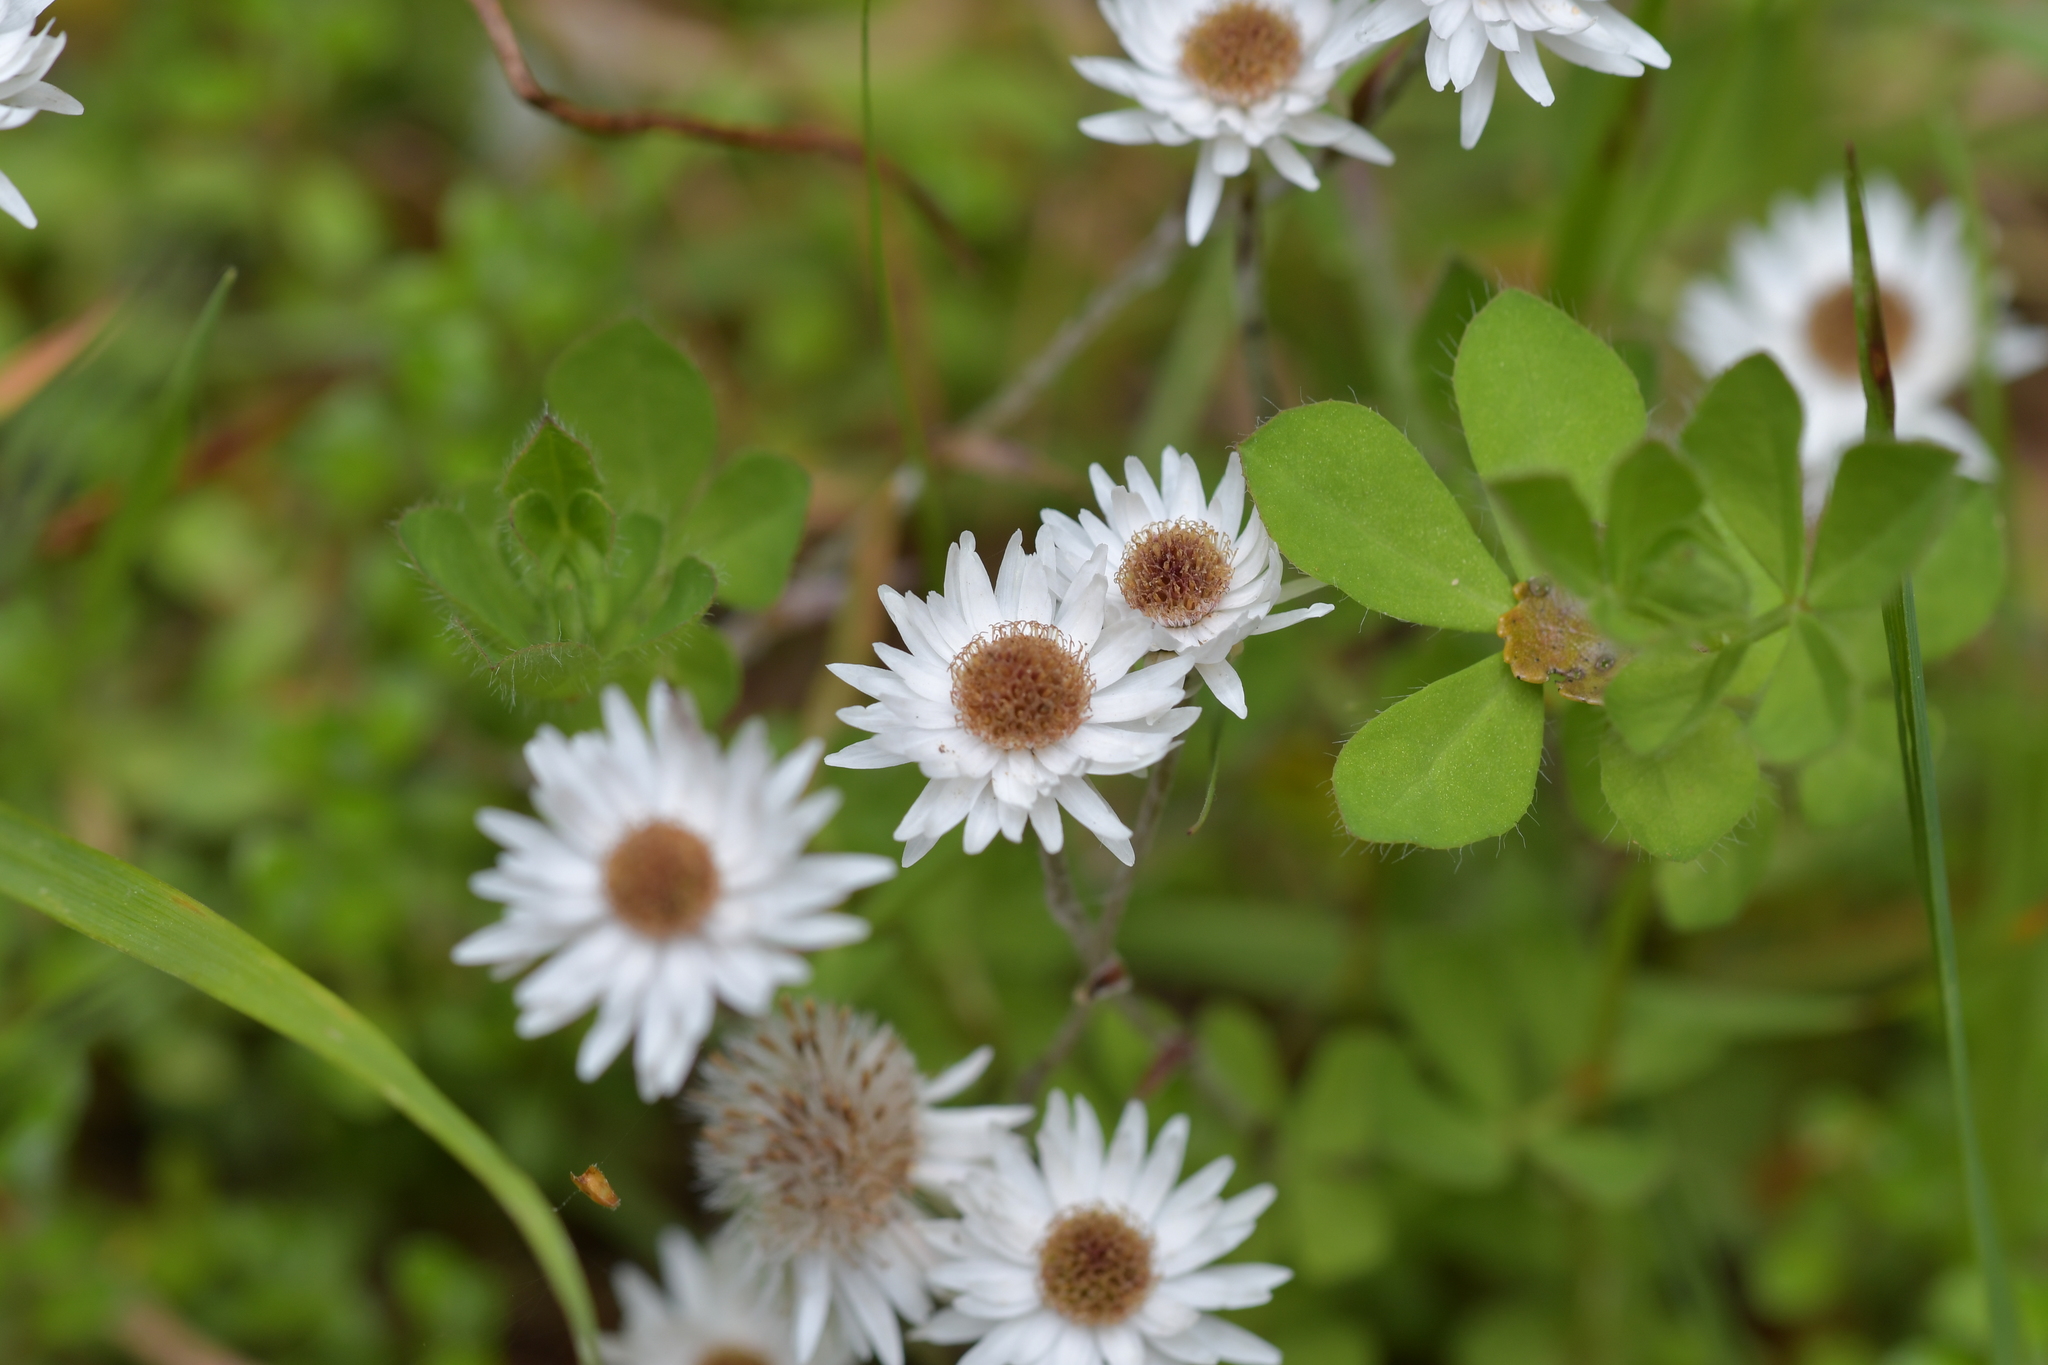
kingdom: Plantae
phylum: Tracheophyta
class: Magnoliopsida
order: Asterales
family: Asteraceae
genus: Anaphalioides
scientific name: Anaphalioides bellidioides
